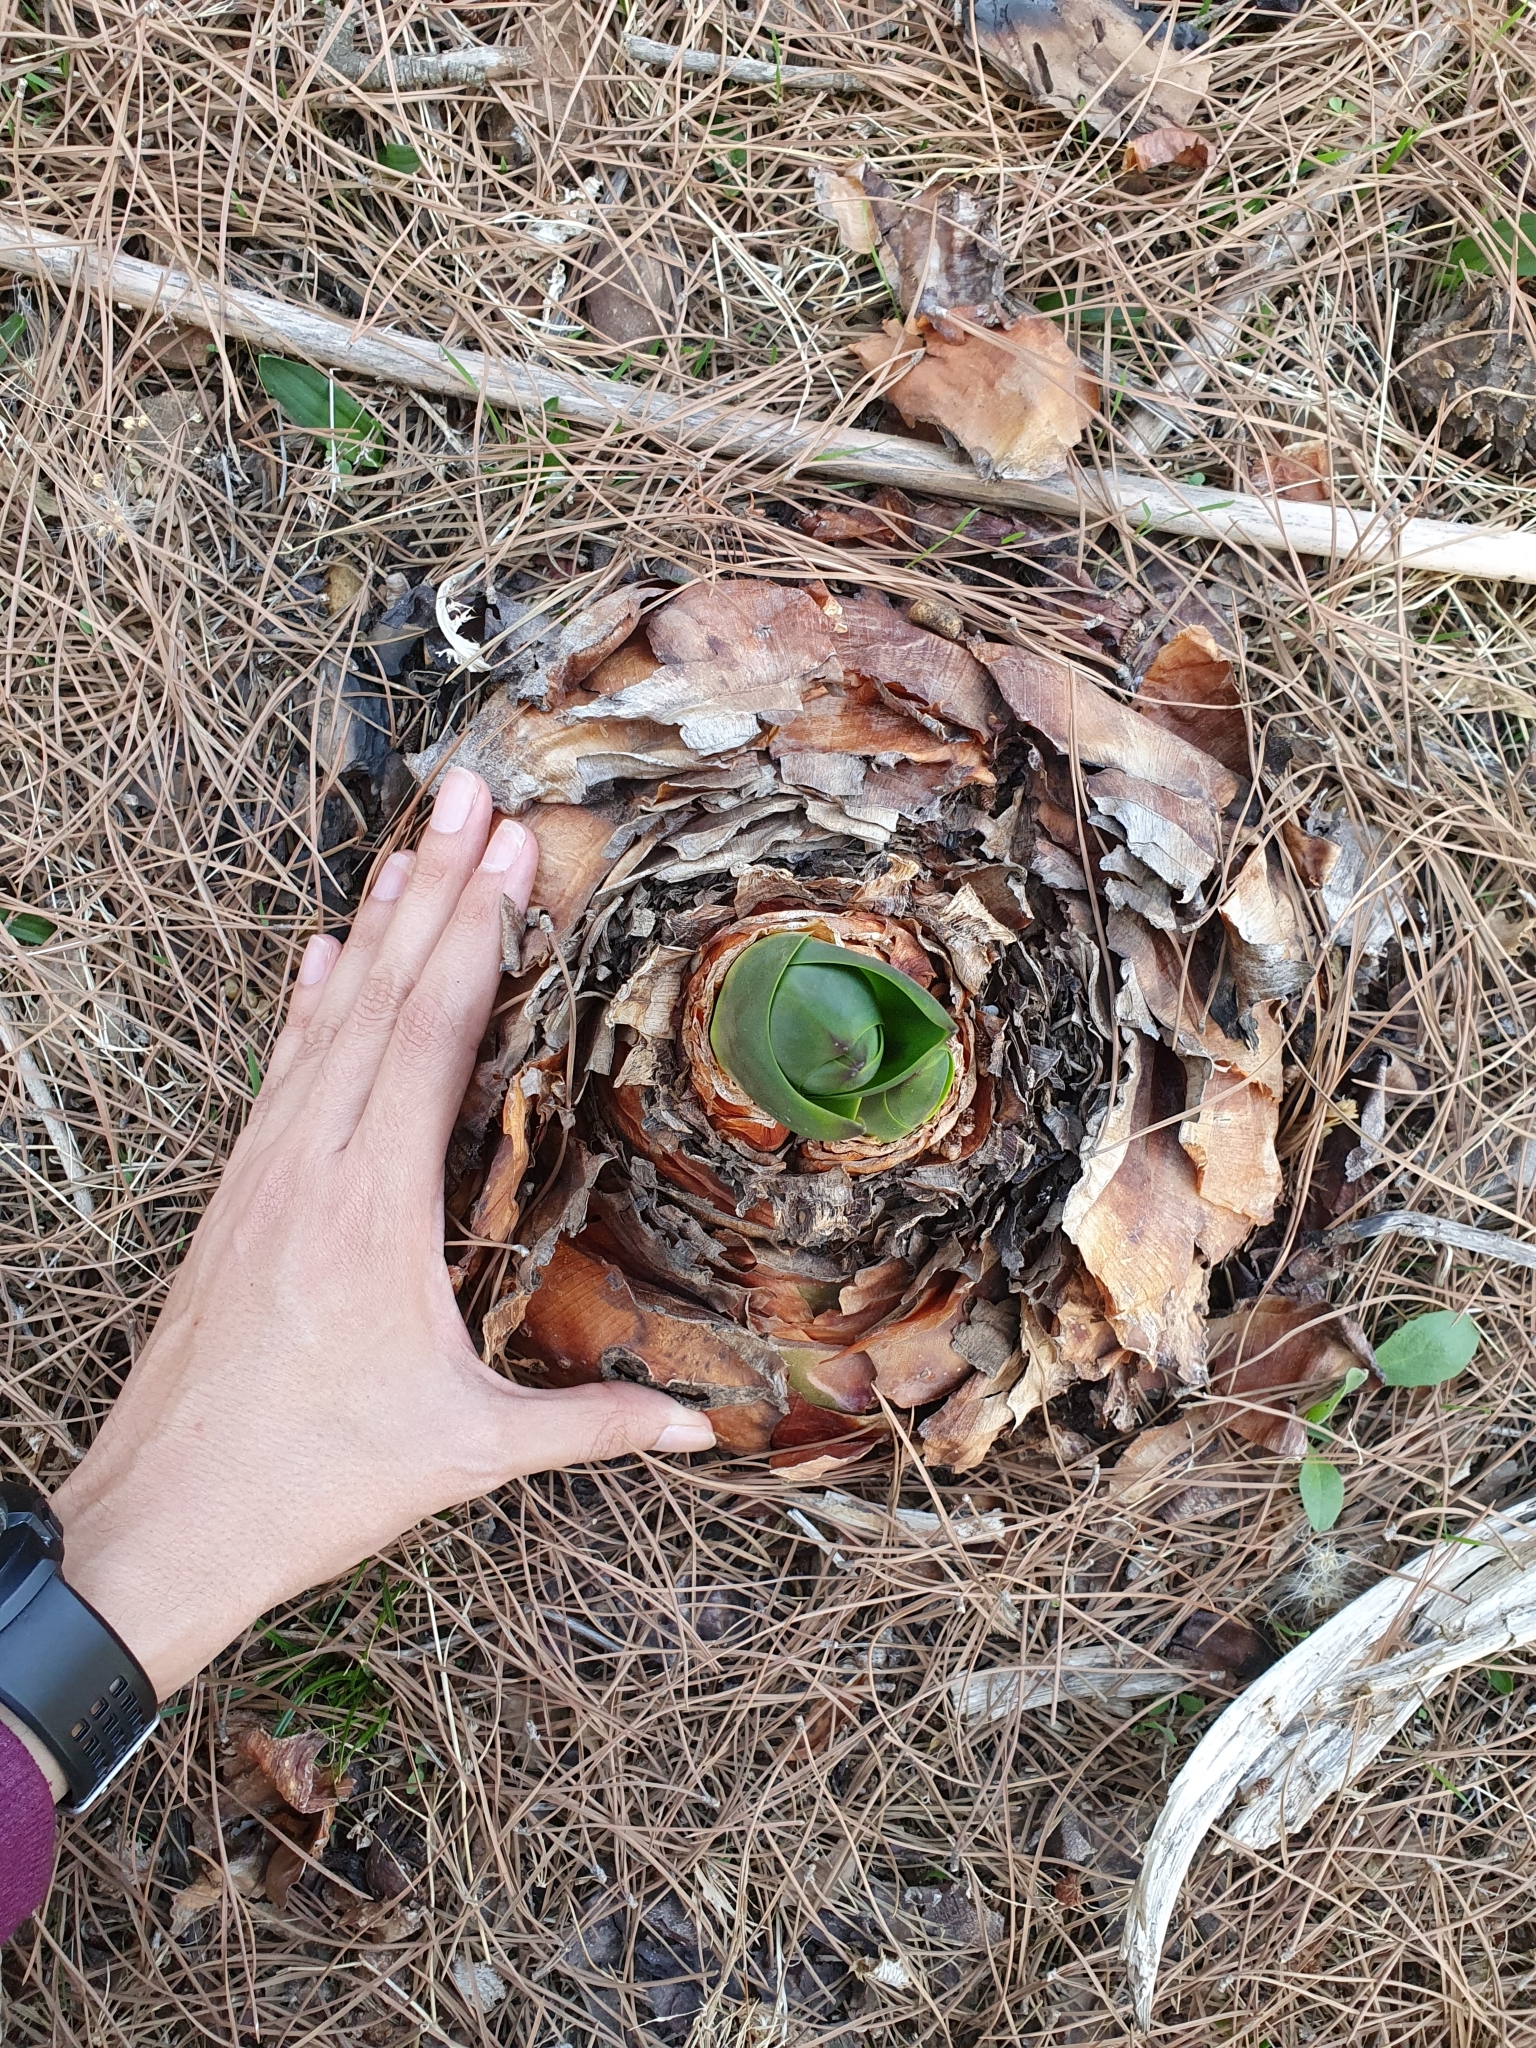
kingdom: Plantae
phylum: Tracheophyta
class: Liliopsida
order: Asparagales
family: Asparagaceae
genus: Drimia
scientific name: Drimia numidica
